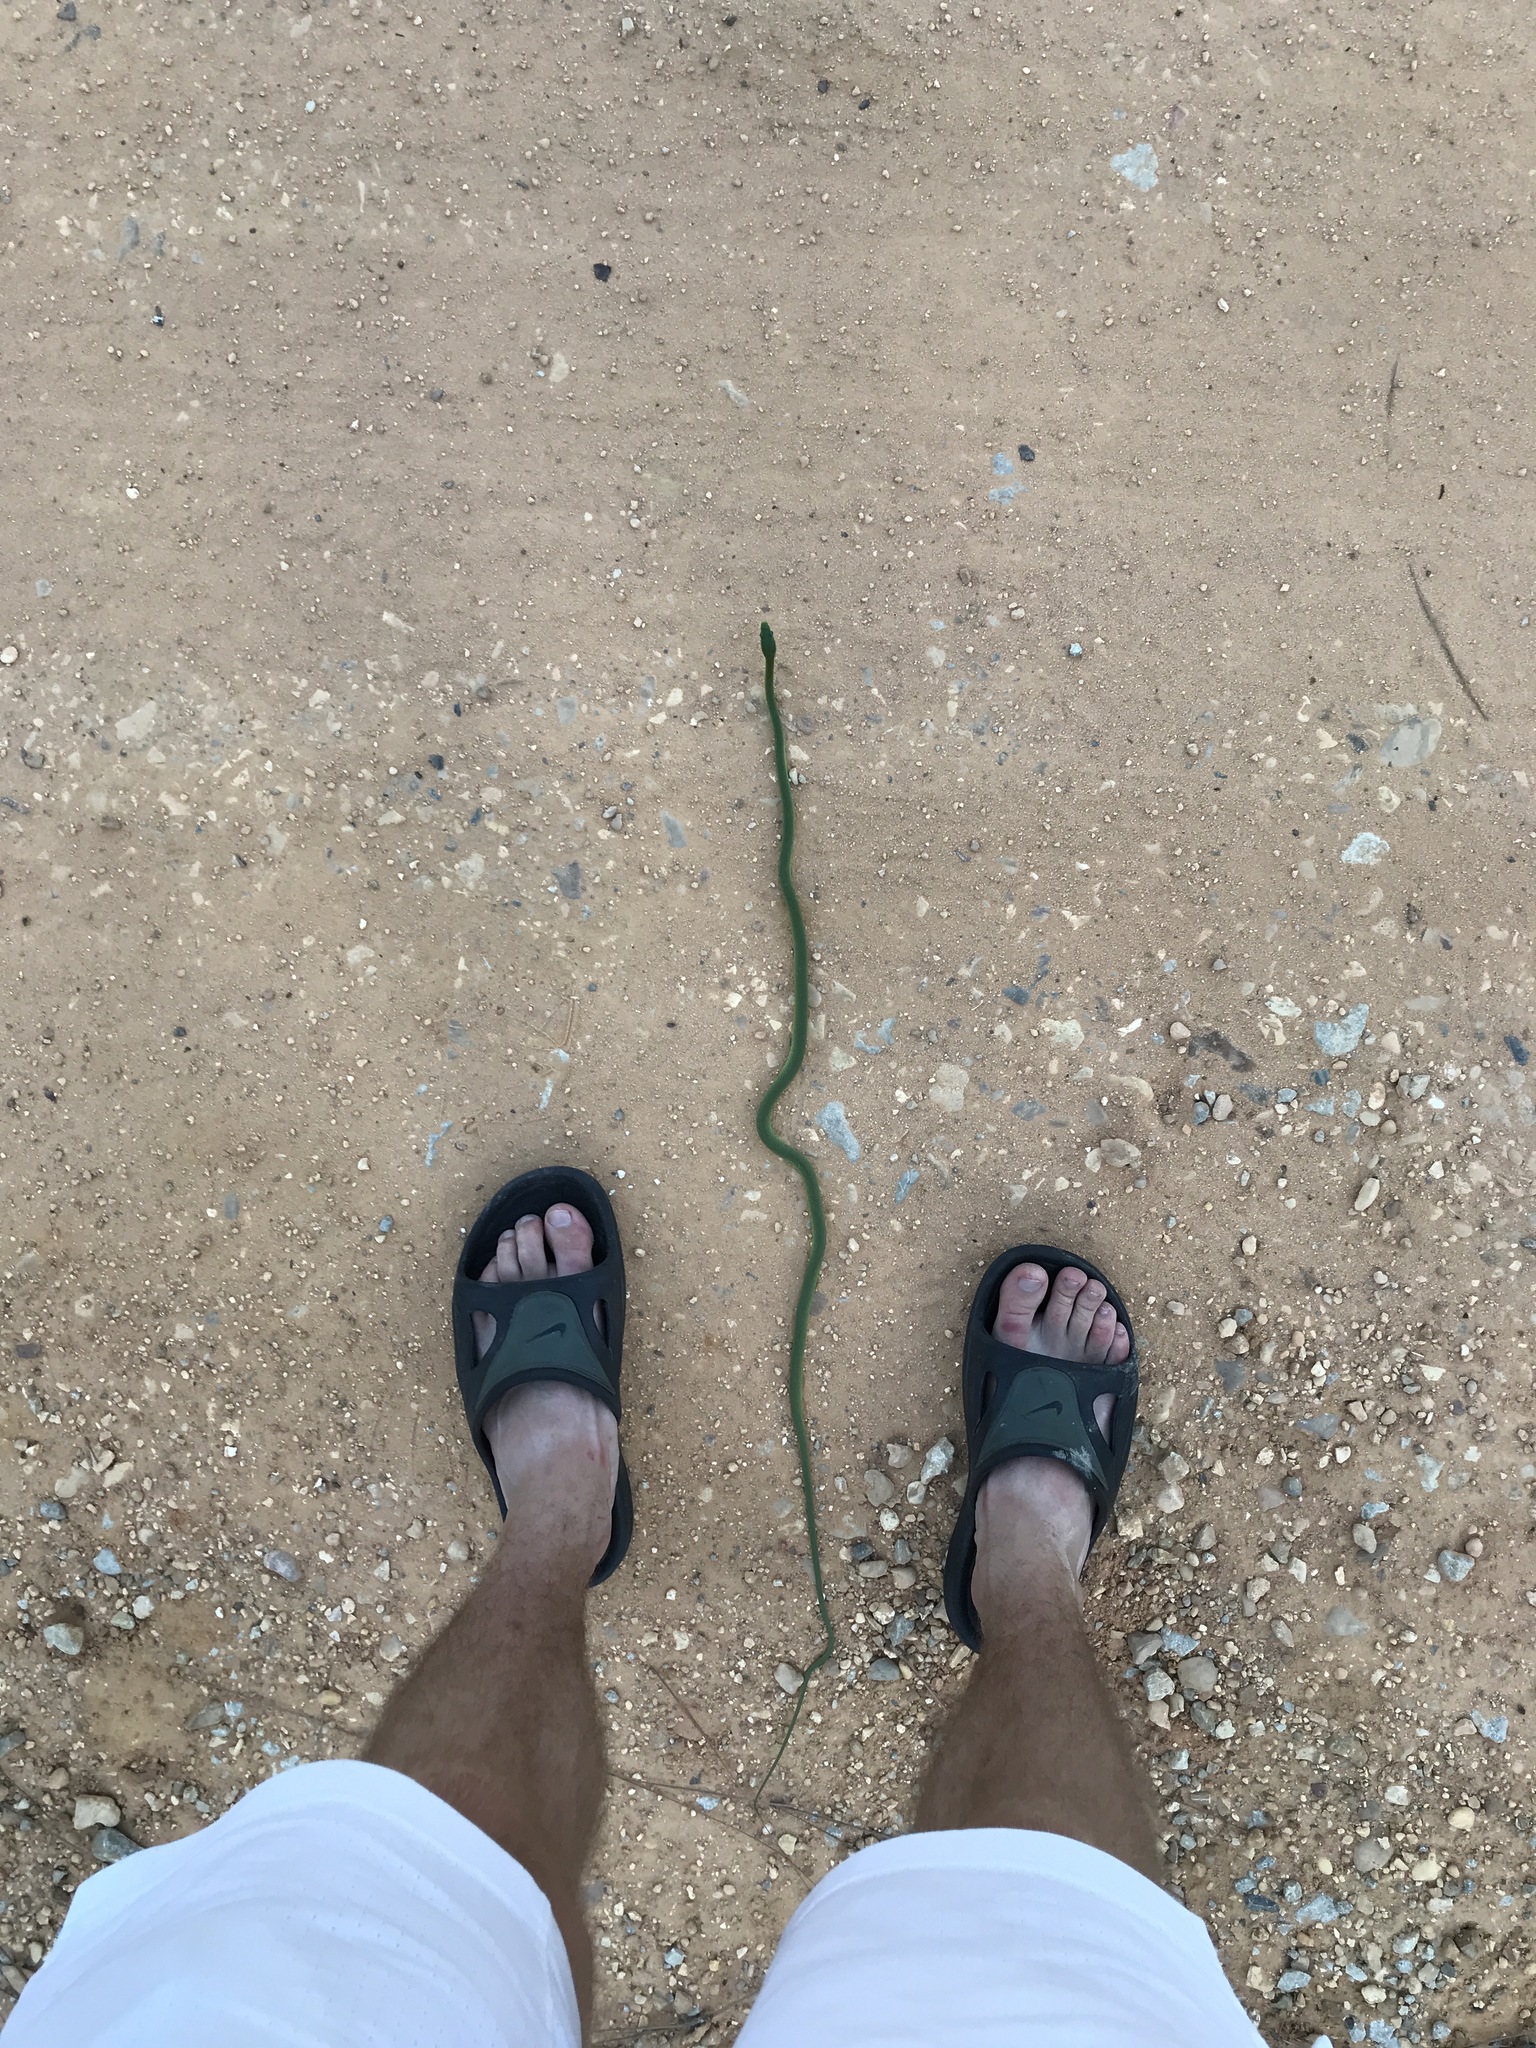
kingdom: Animalia
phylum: Chordata
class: Squamata
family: Colubridae
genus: Opheodrys
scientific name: Opheodrys aestivus
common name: Rough greensnake
